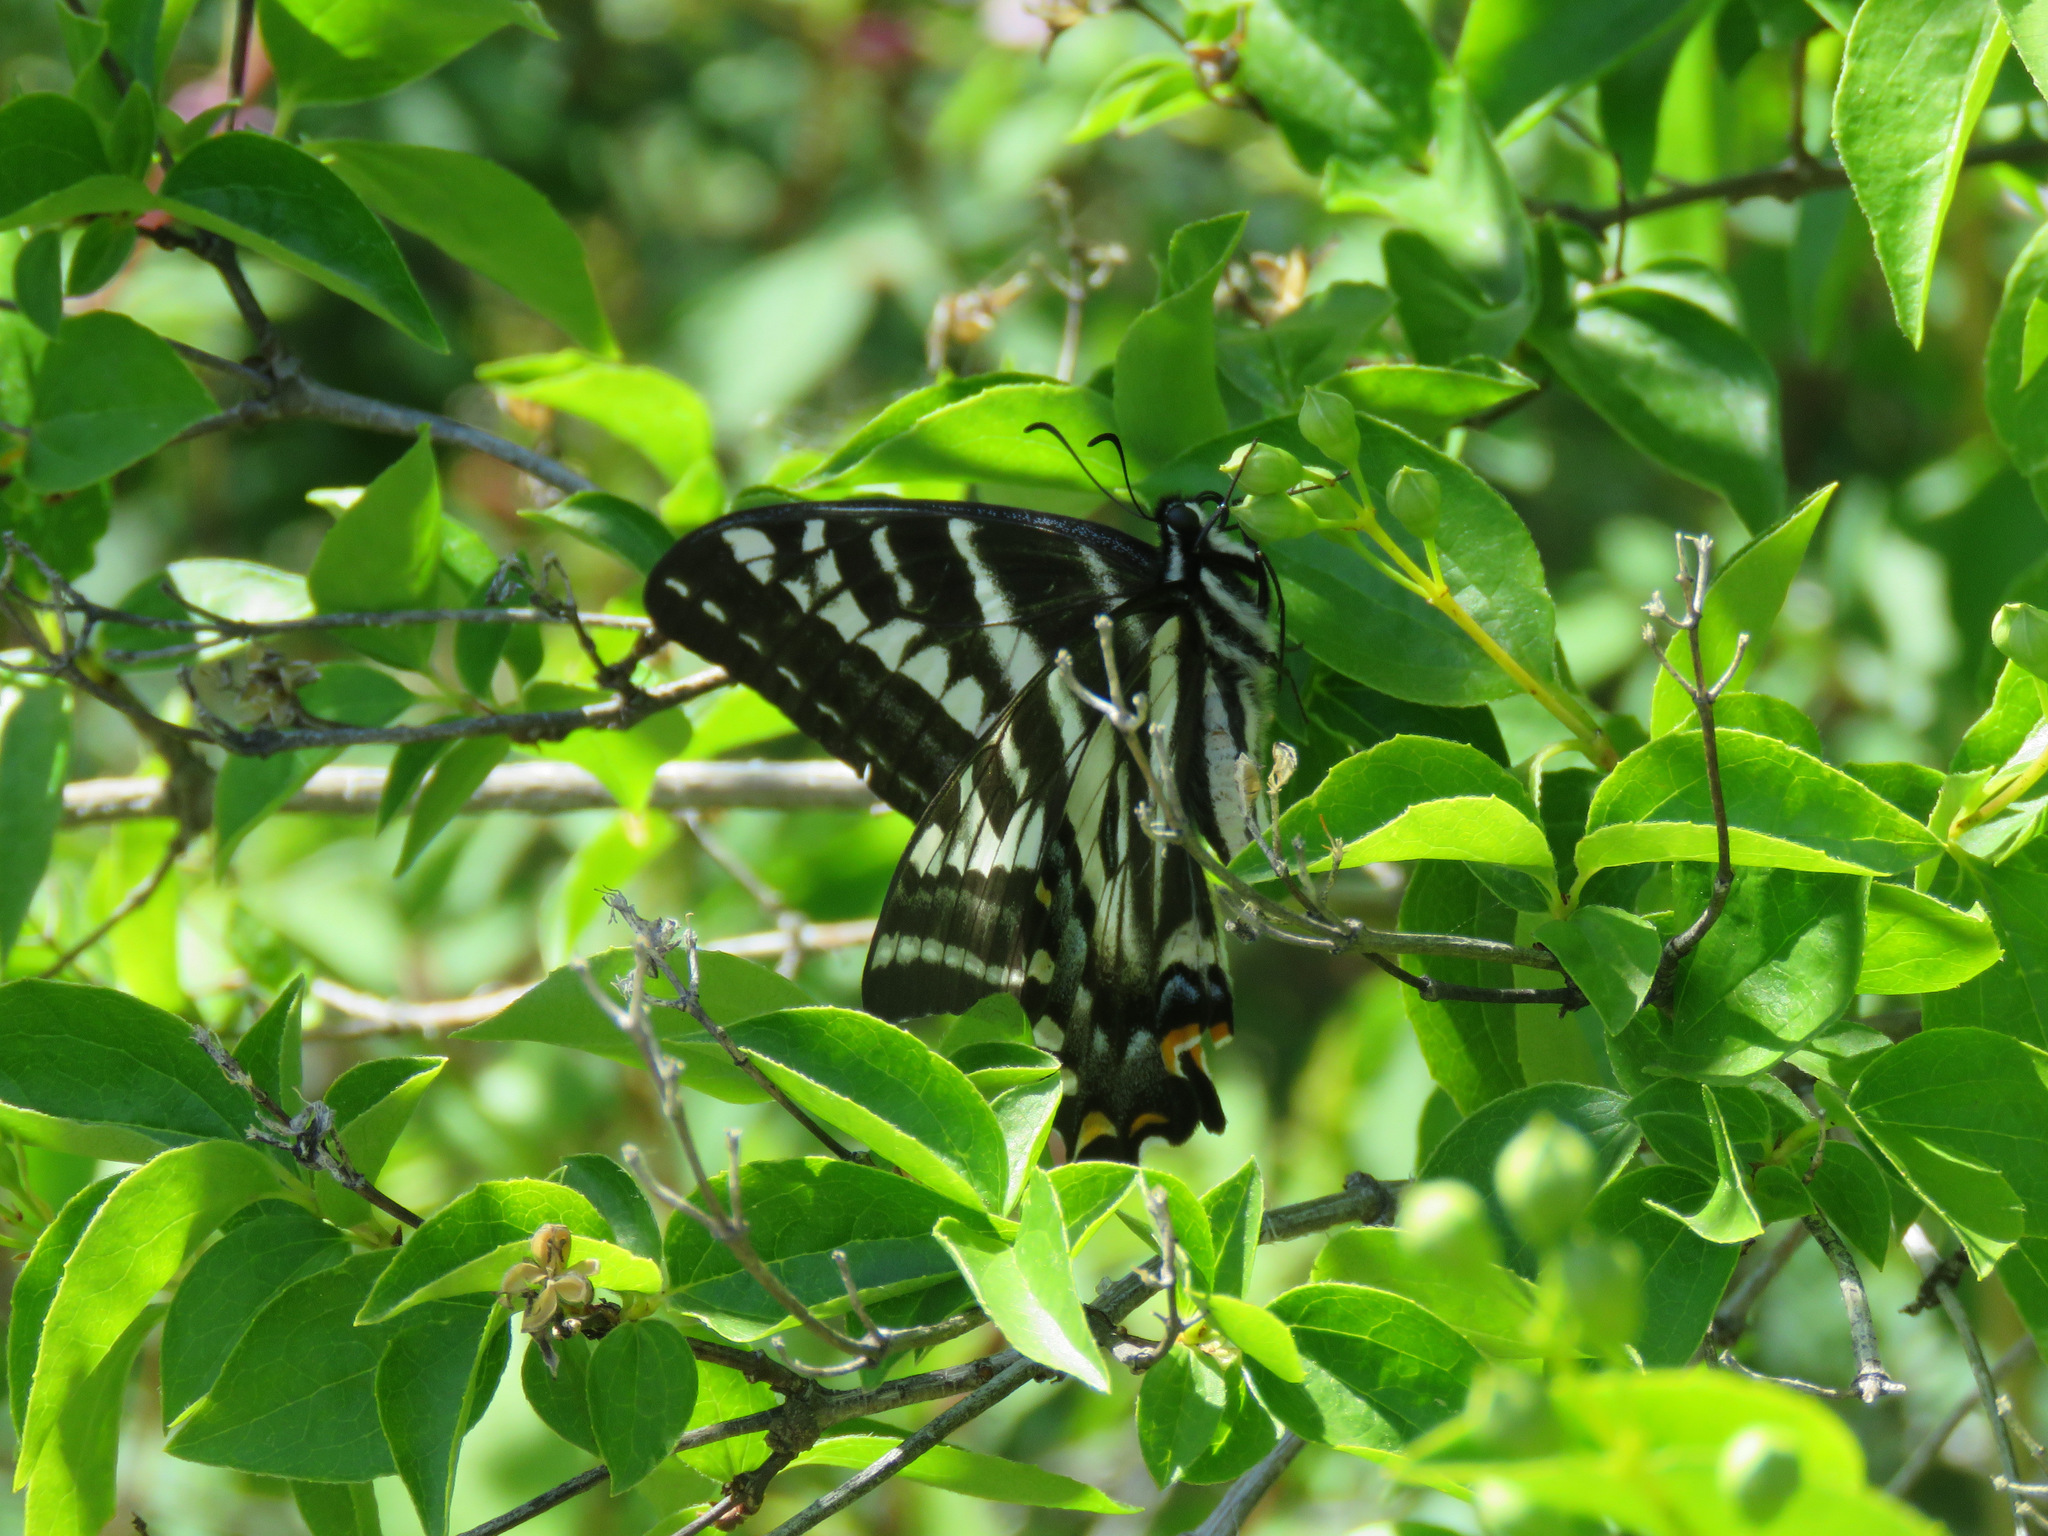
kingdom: Animalia
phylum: Arthropoda
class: Insecta
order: Lepidoptera
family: Papilionidae
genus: Papilio
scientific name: Papilio eurymedon
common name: Pale tiger swallowtail
